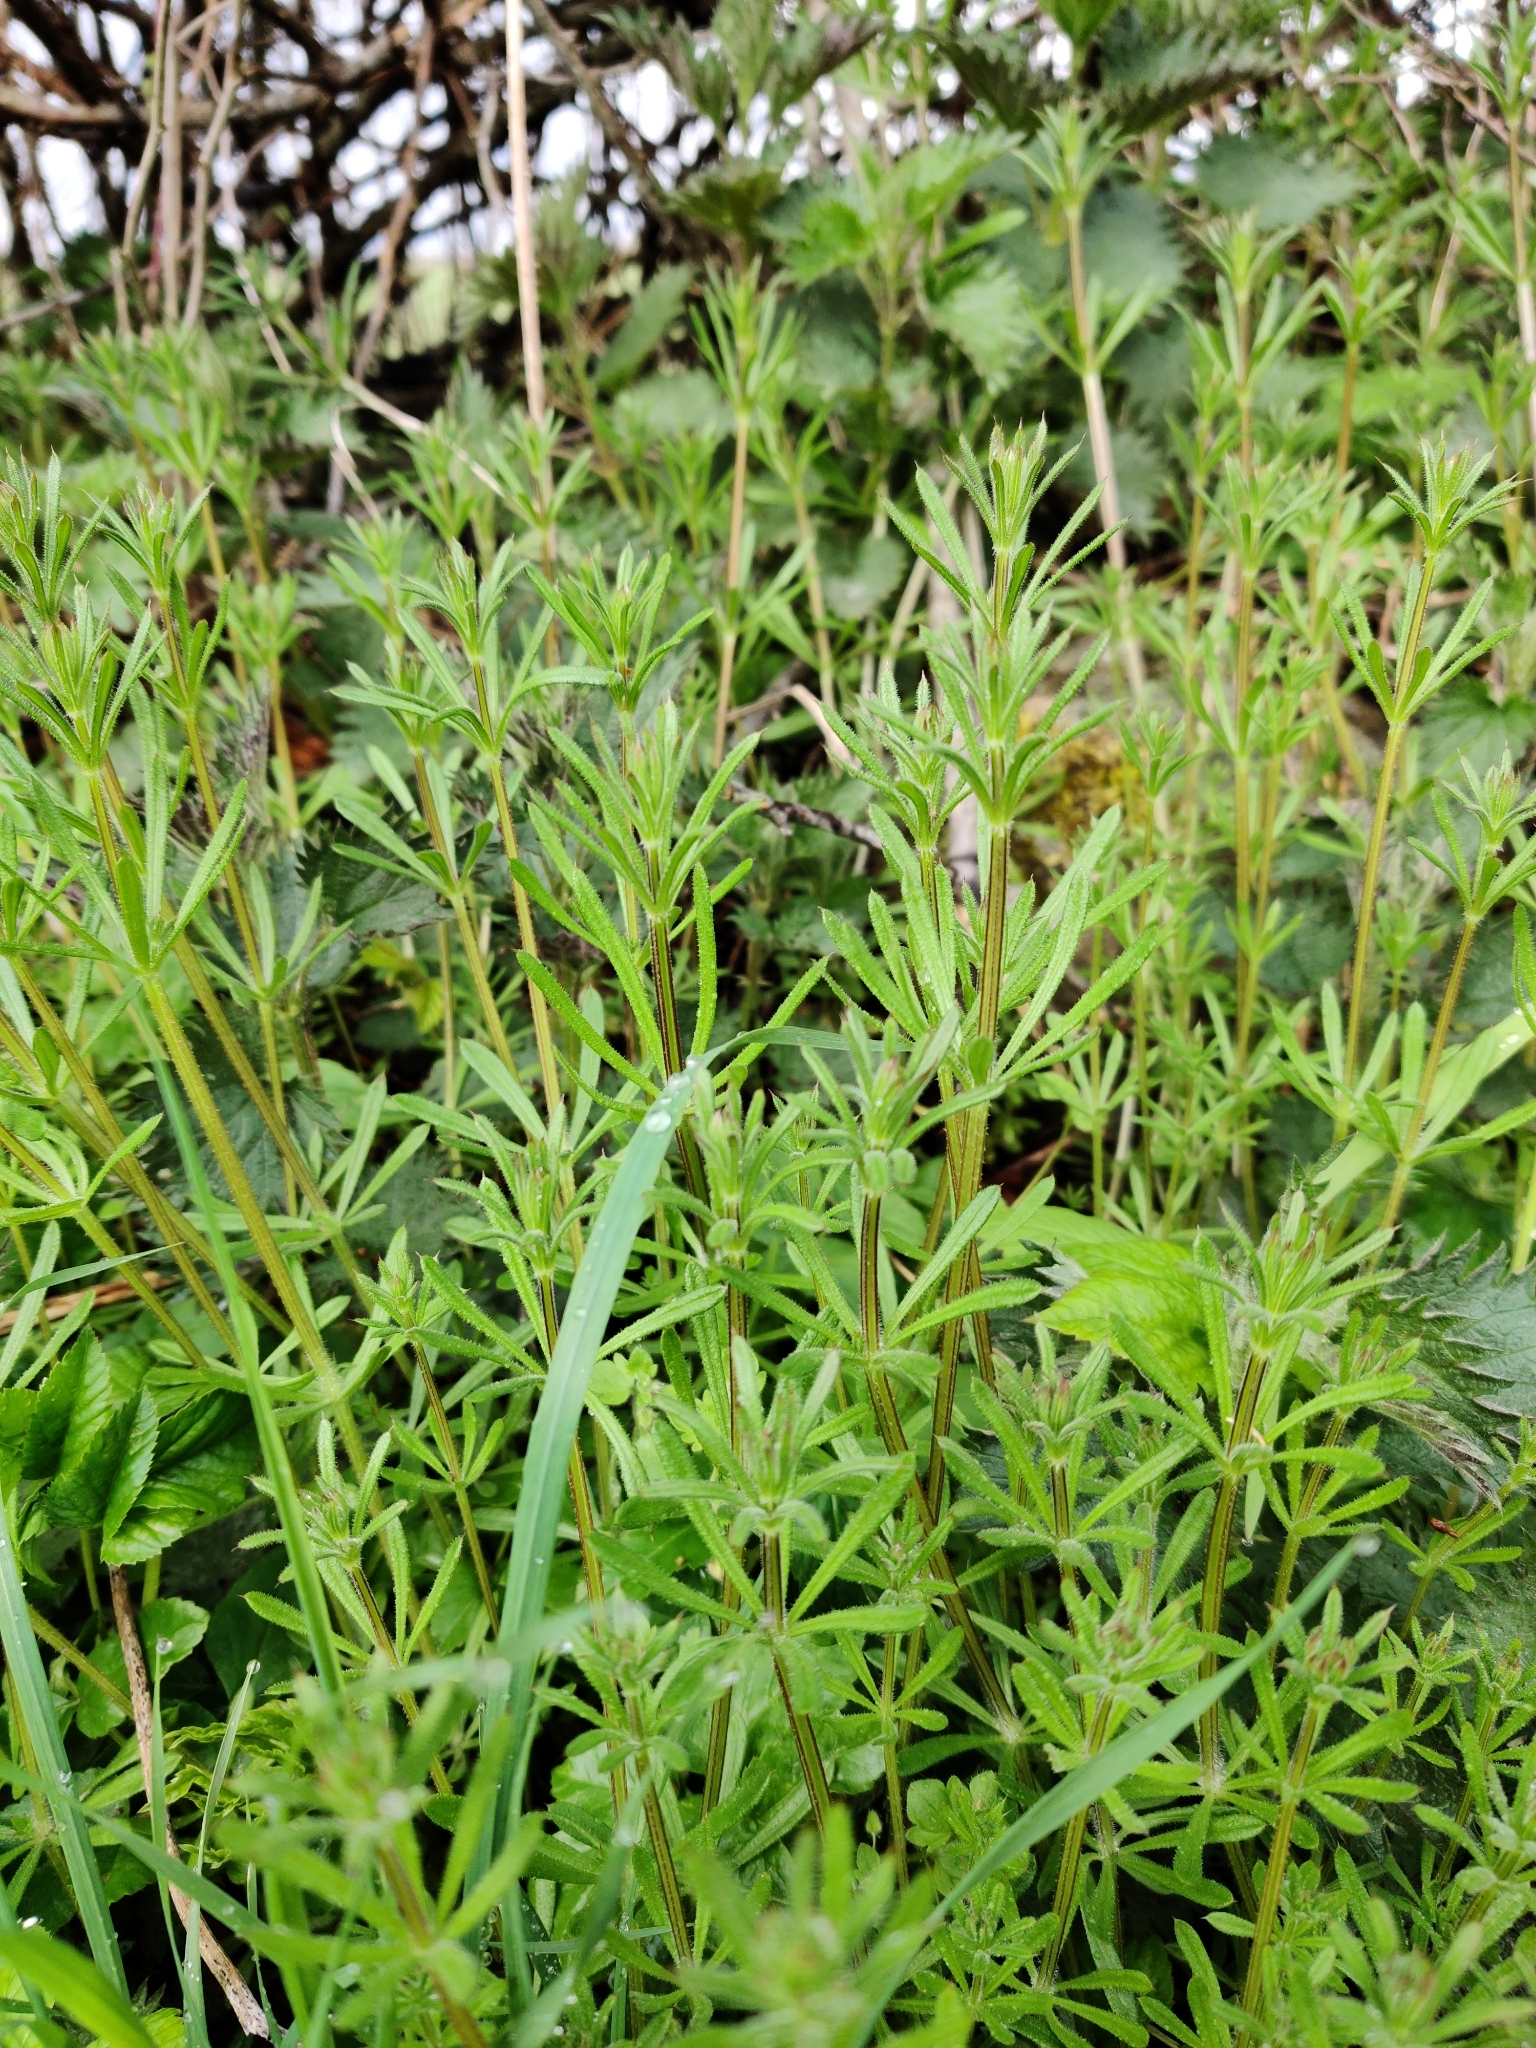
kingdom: Plantae
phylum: Tracheophyta
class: Magnoliopsida
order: Gentianales
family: Rubiaceae
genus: Galium
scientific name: Galium aparine
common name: Cleavers
